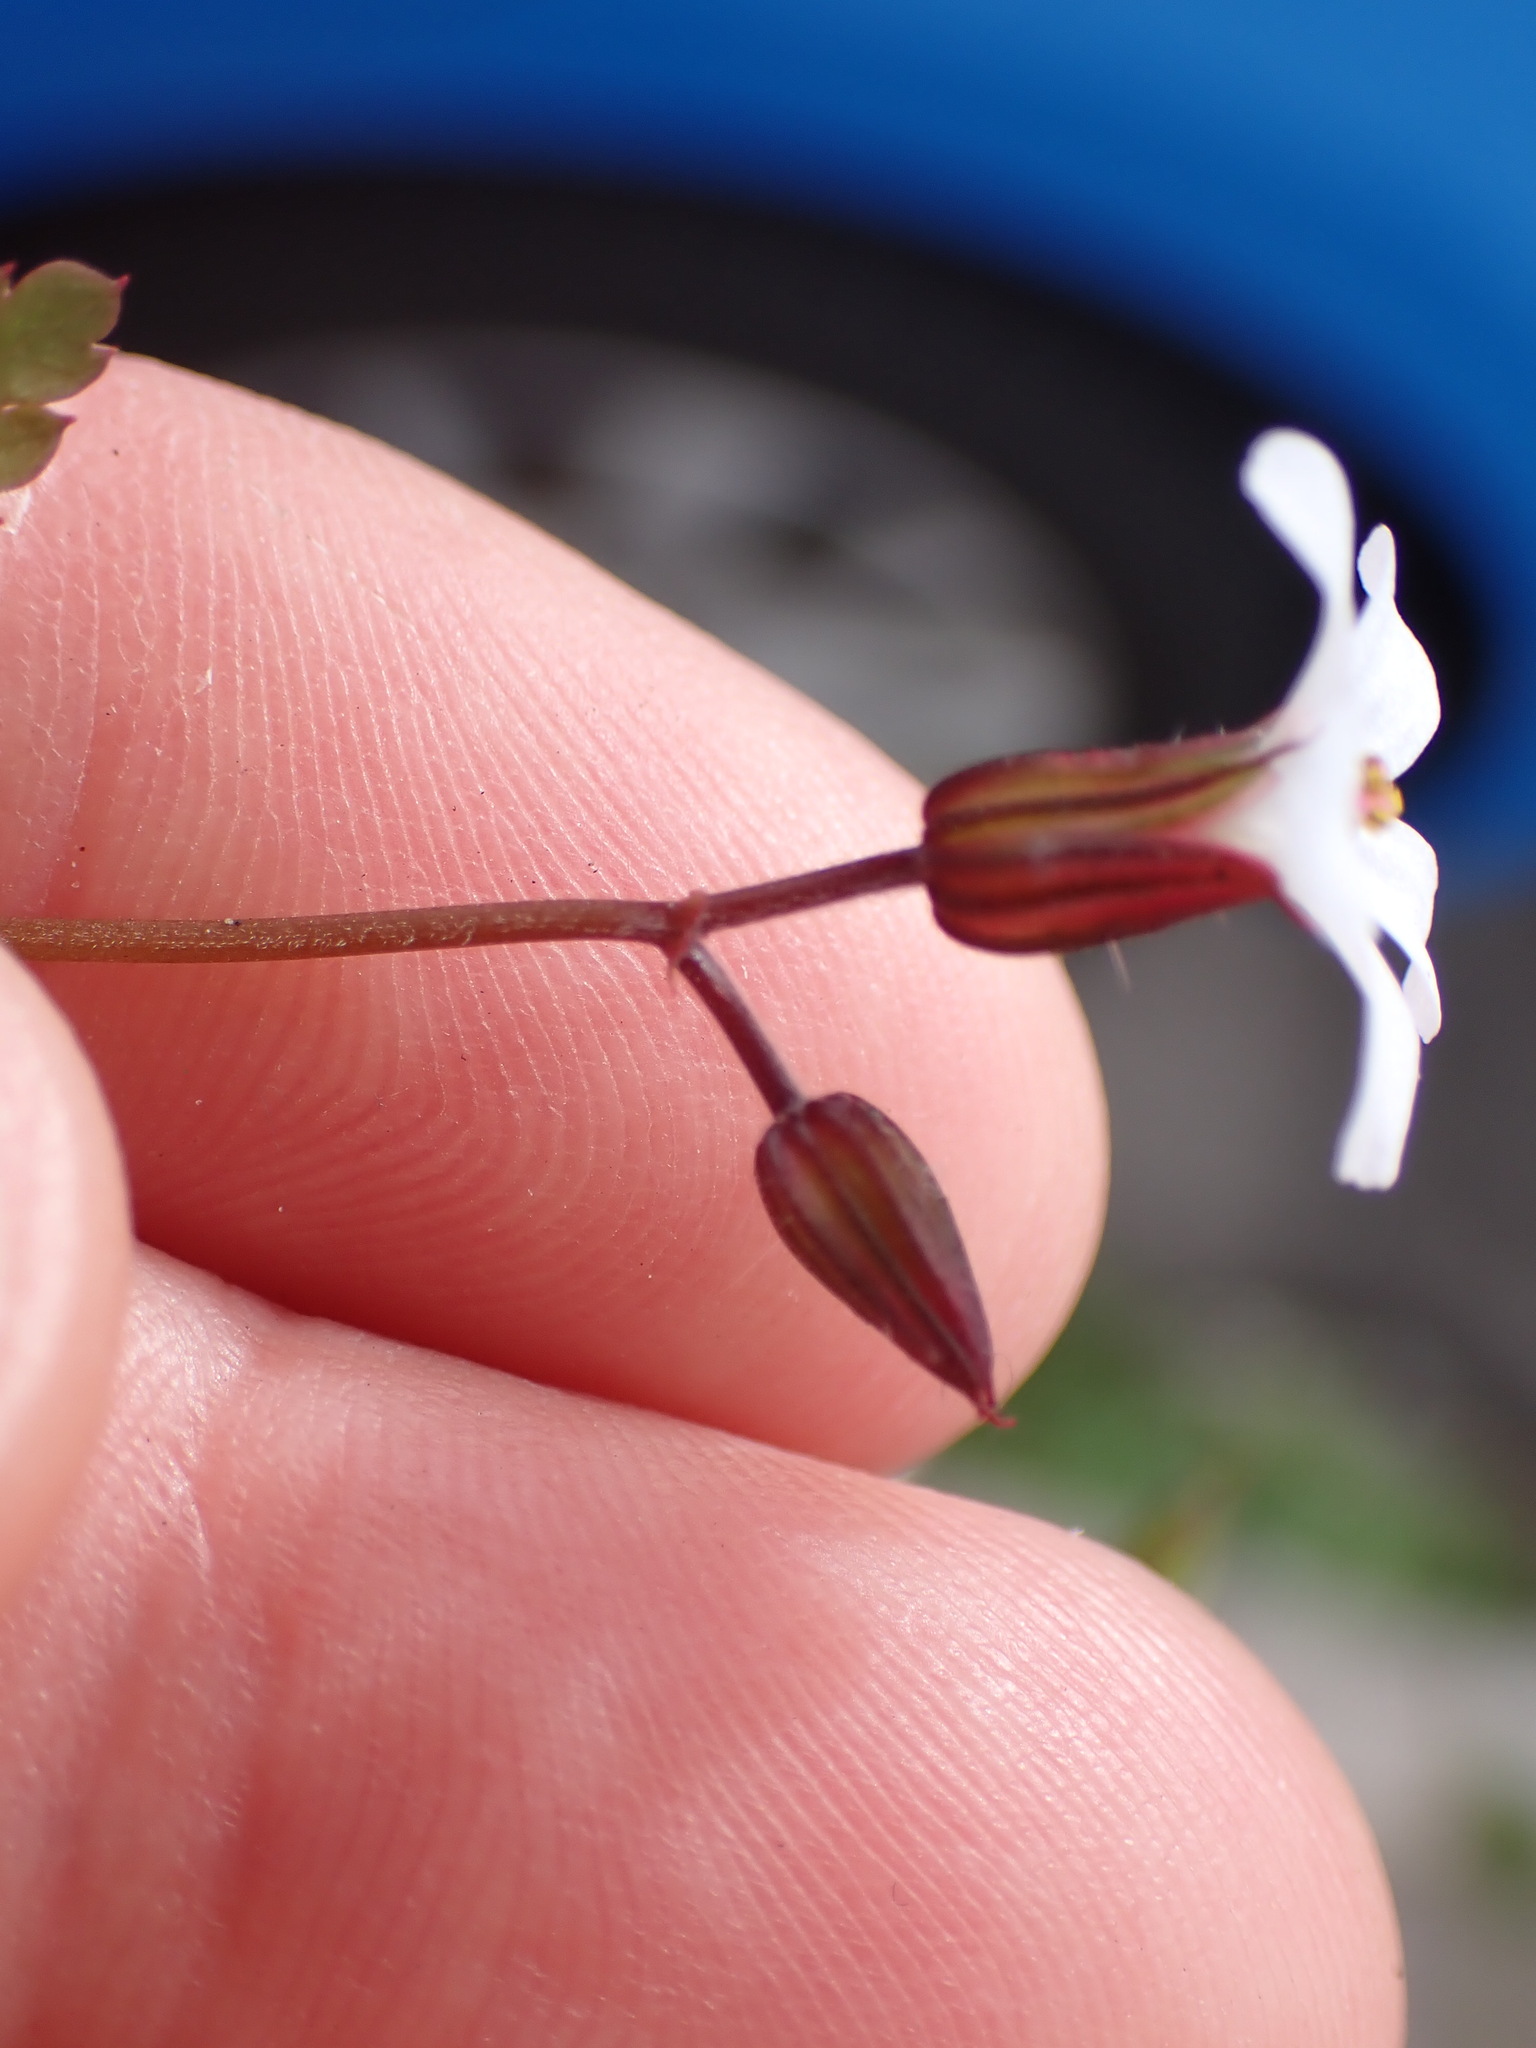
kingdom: Plantae
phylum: Tracheophyta
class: Magnoliopsida
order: Geraniales
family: Geraniaceae
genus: Geranium
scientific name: Geranium robertianum
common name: Herb-robert
